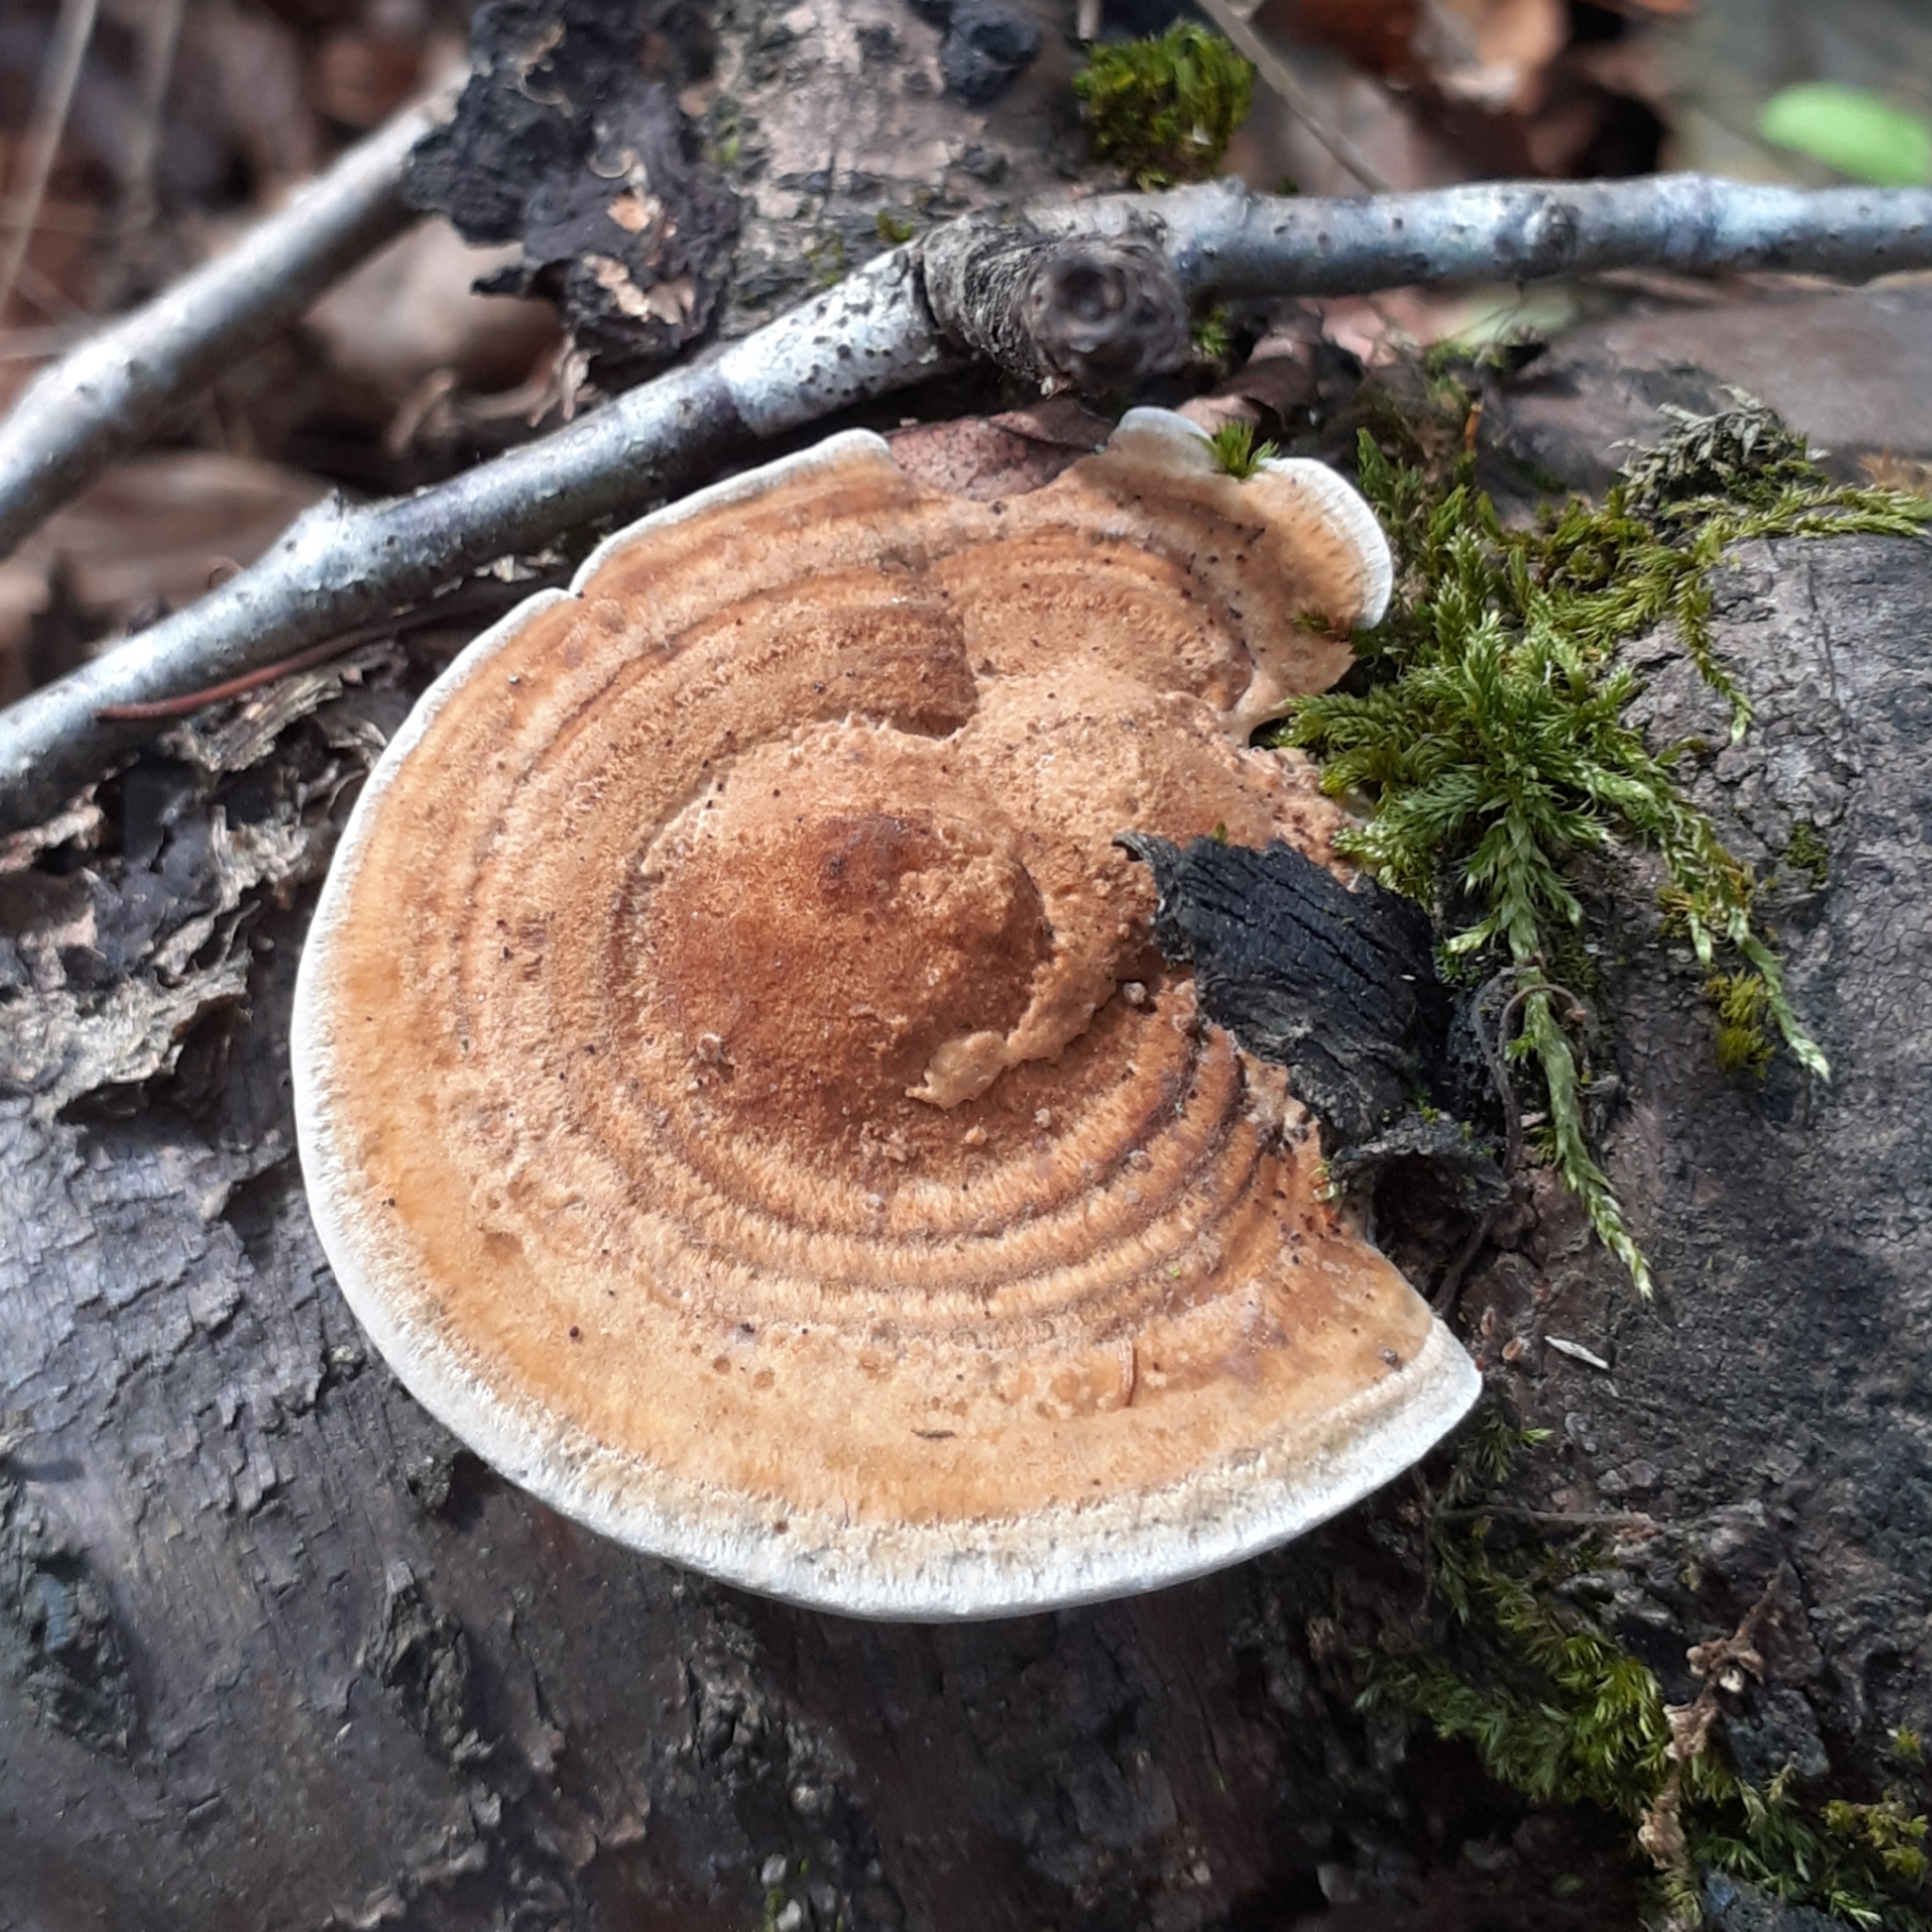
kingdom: Fungi
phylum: Basidiomycota
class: Agaricomycetes
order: Polyporales
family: Polyporaceae
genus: Daedaleopsis
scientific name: Daedaleopsis confragosa
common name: Blushing bracket
